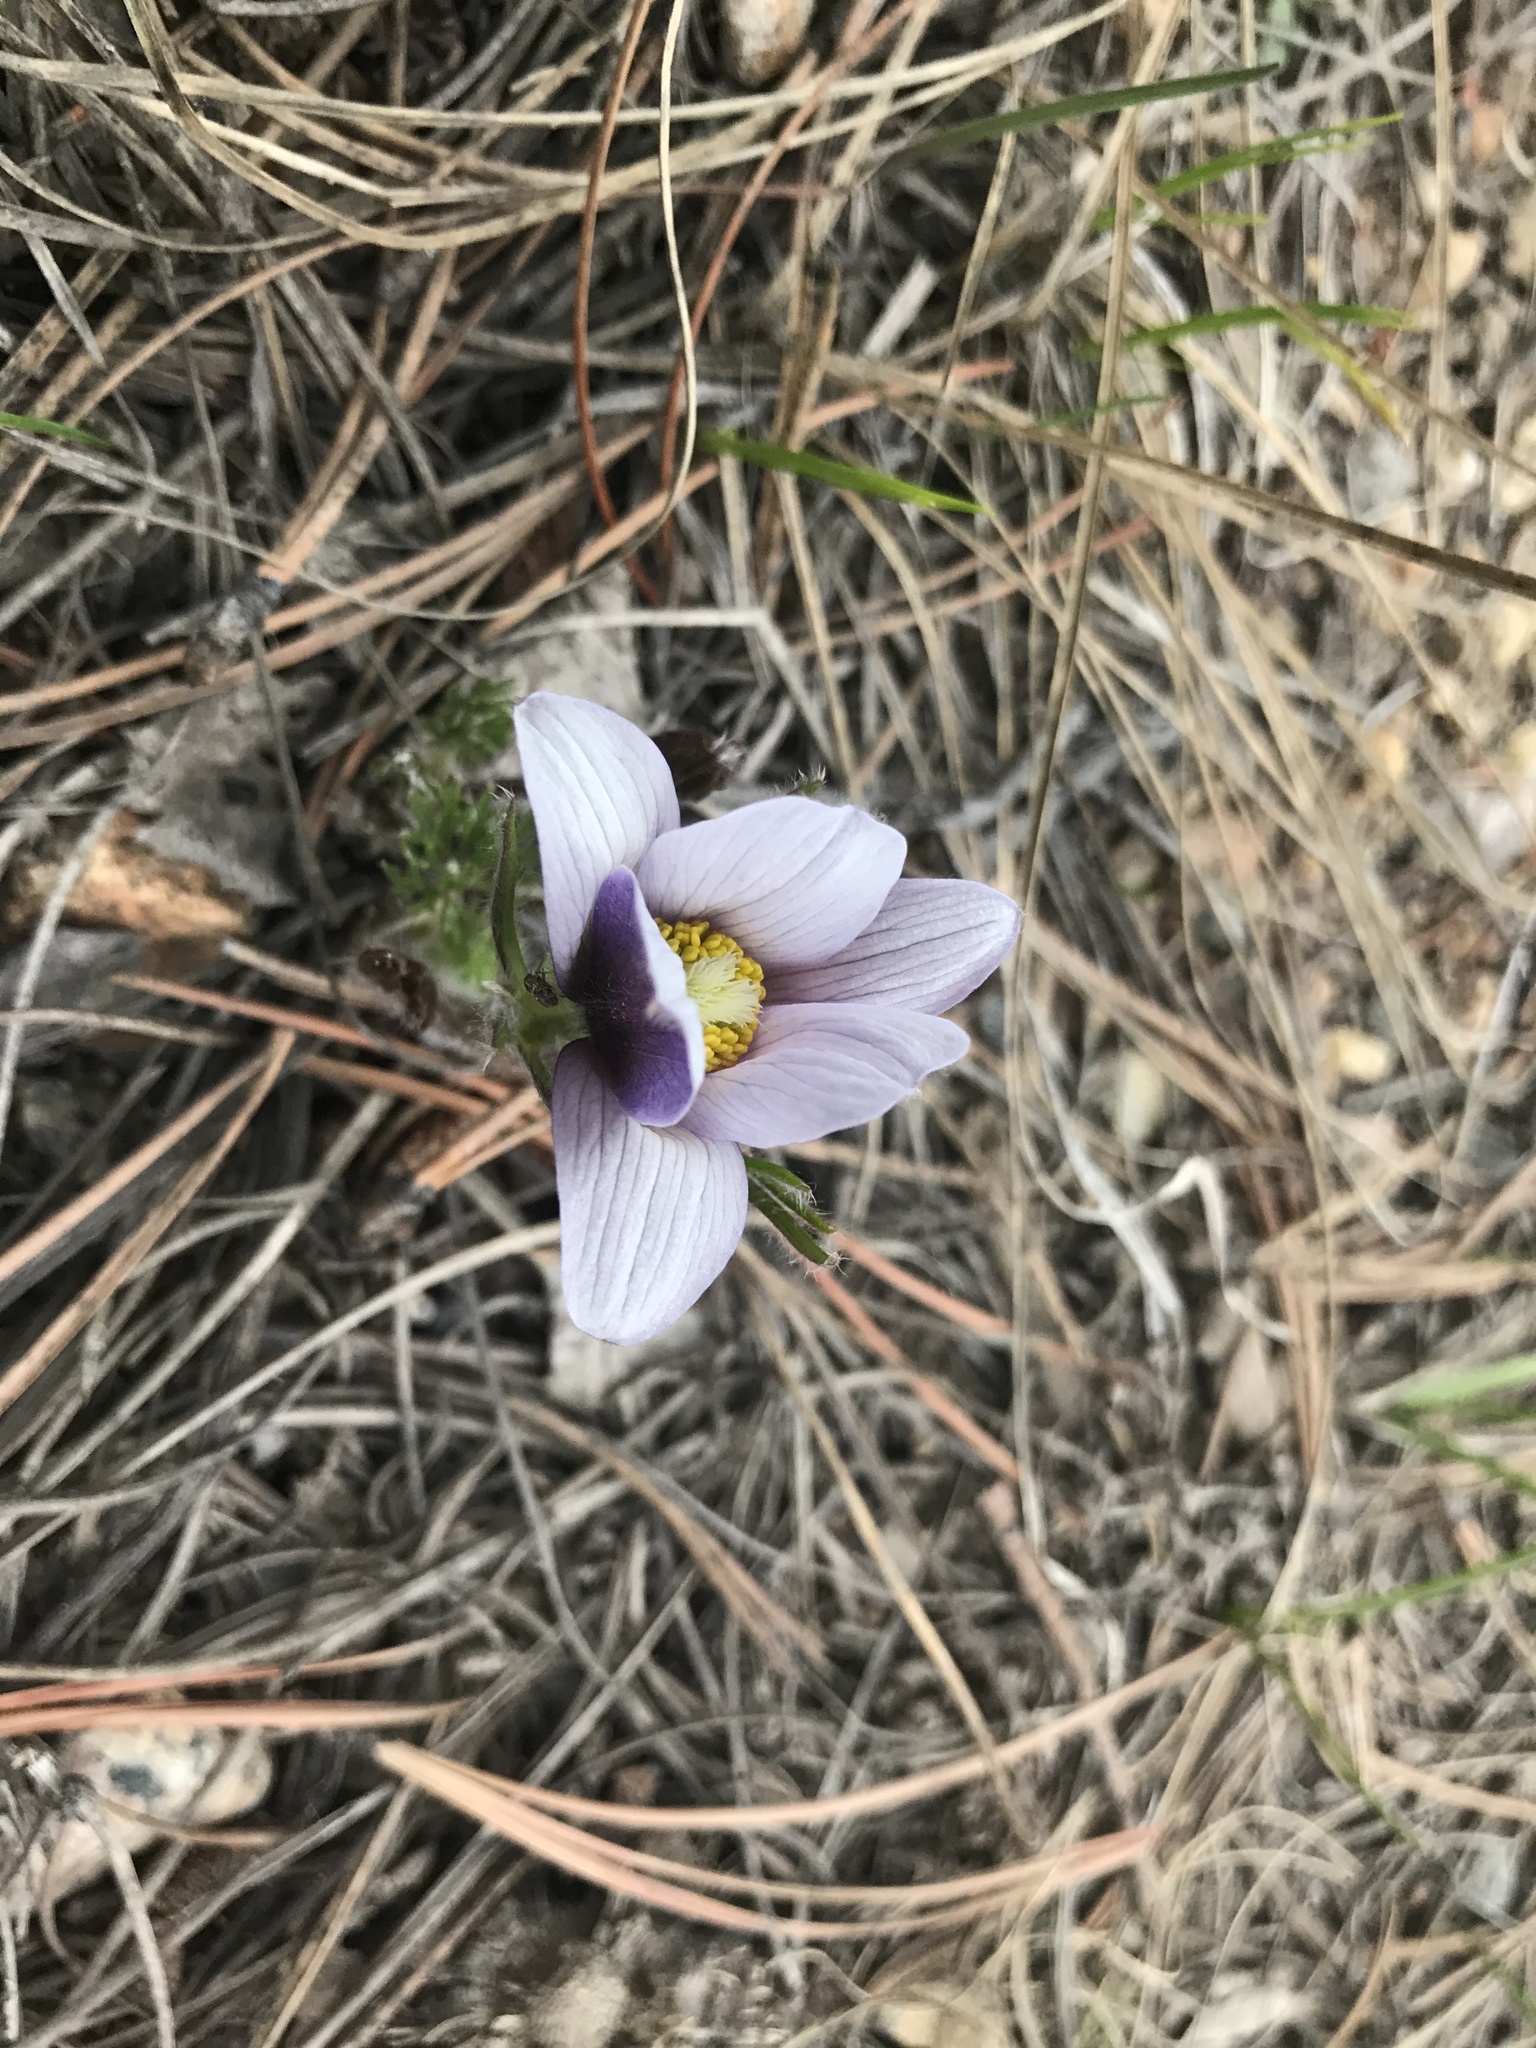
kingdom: Plantae
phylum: Tracheophyta
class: Magnoliopsida
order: Ranunculales
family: Ranunculaceae
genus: Pulsatilla
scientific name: Pulsatilla nuttalliana
